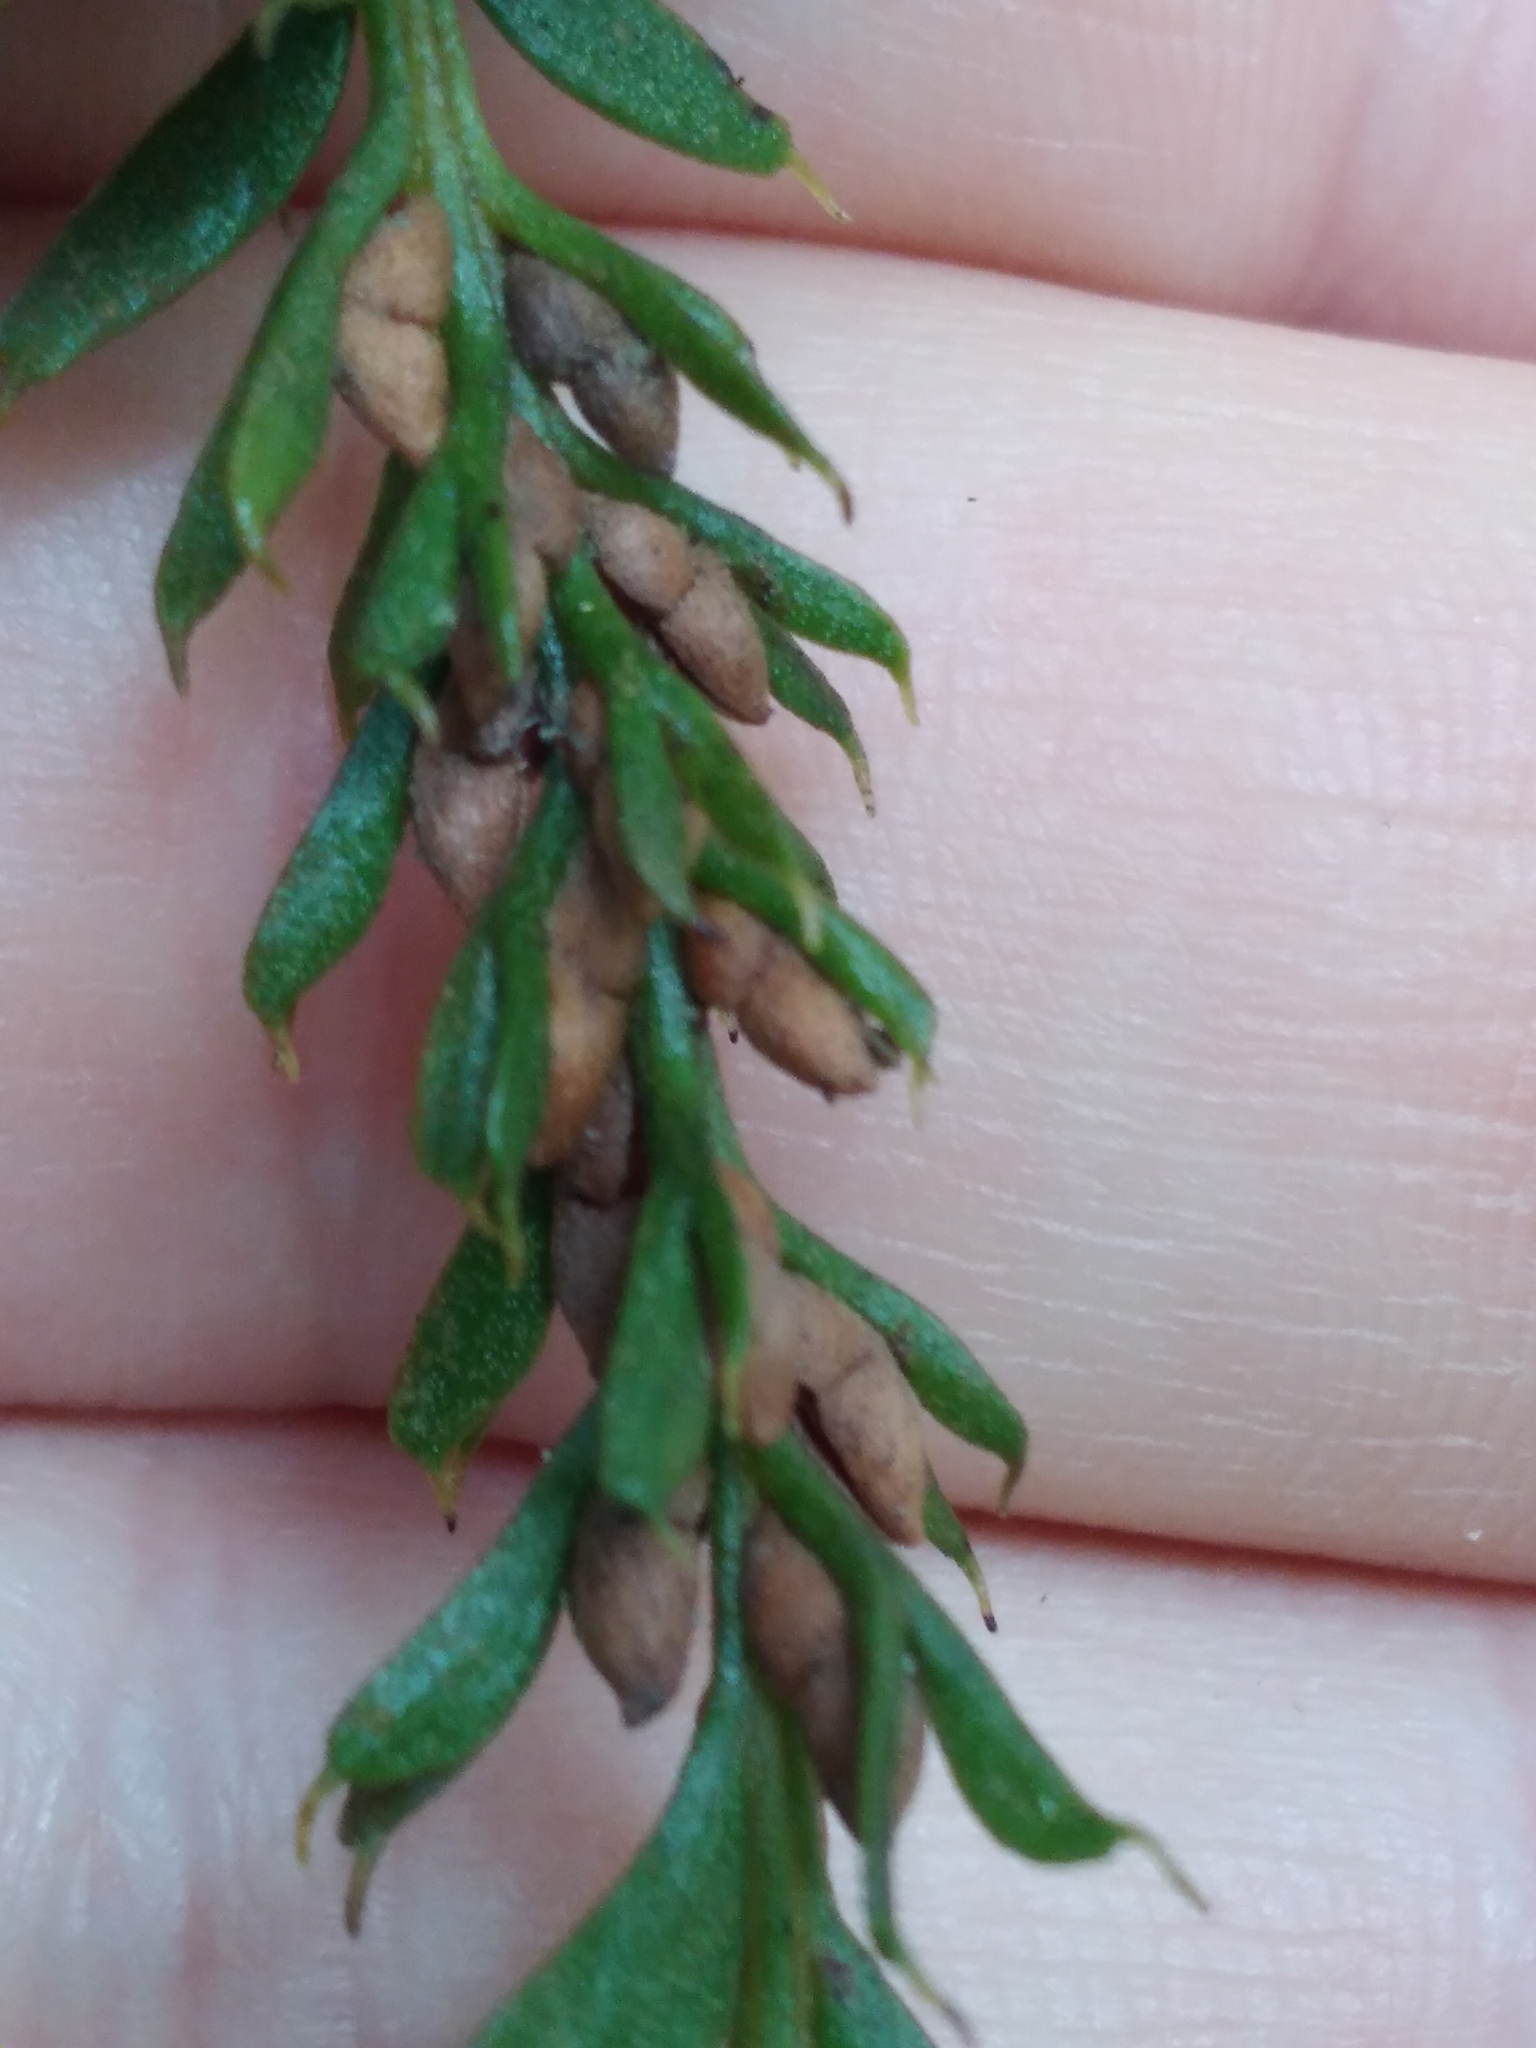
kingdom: Plantae
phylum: Tracheophyta
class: Polypodiopsida
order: Psilotales
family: Psilotaceae
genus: Tmesipteris
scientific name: Tmesipteris tannensis
